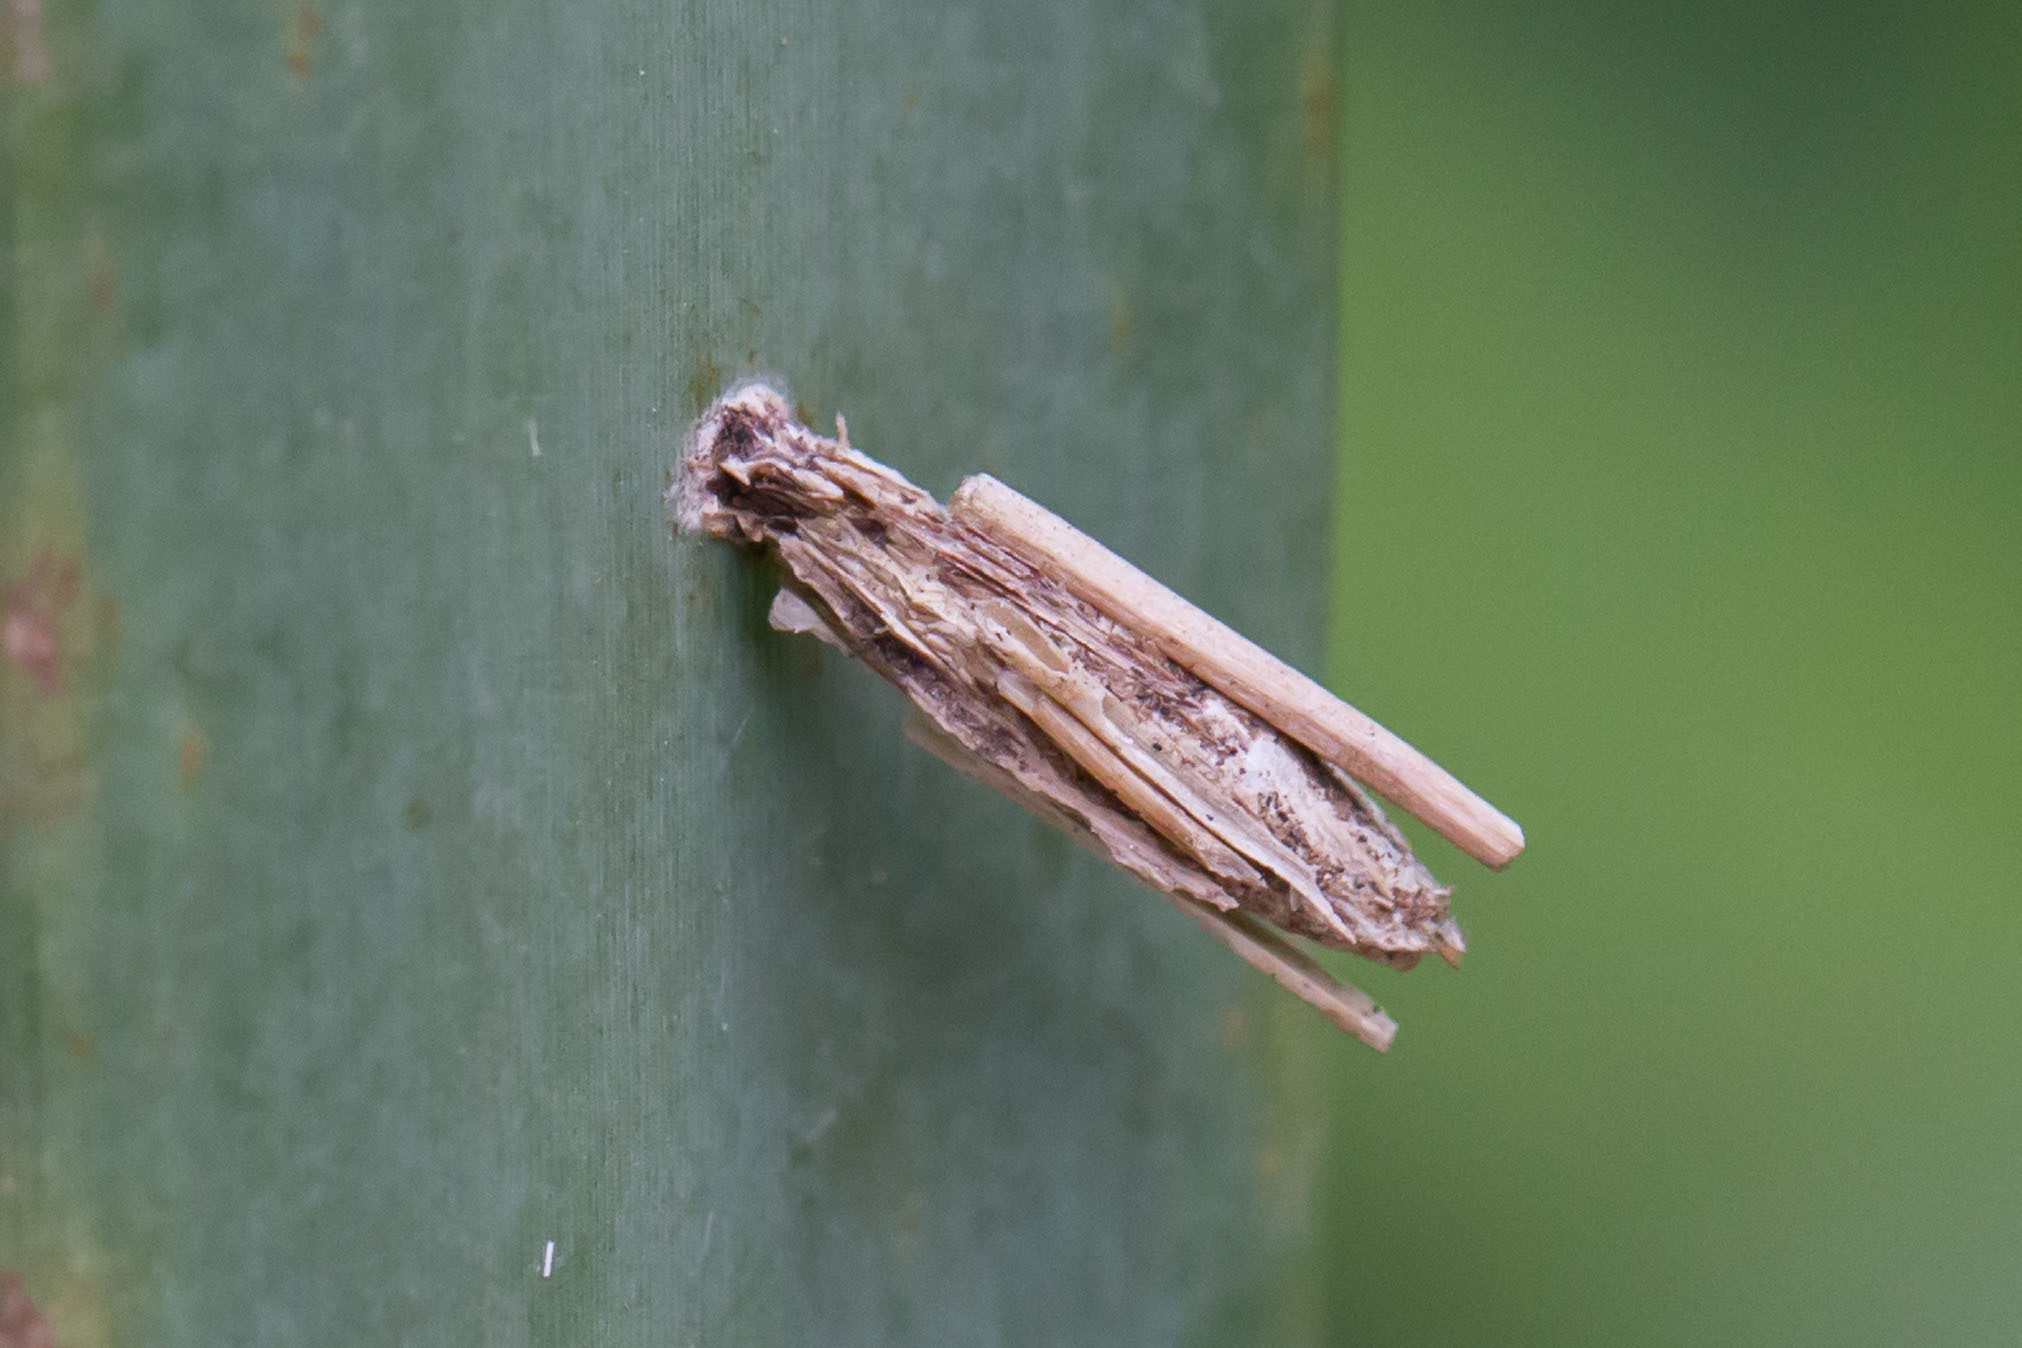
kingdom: Animalia
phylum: Arthropoda
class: Insecta
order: Lepidoptera
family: Psychidae
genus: Psyche
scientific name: Psyche casta
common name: Common sweep
